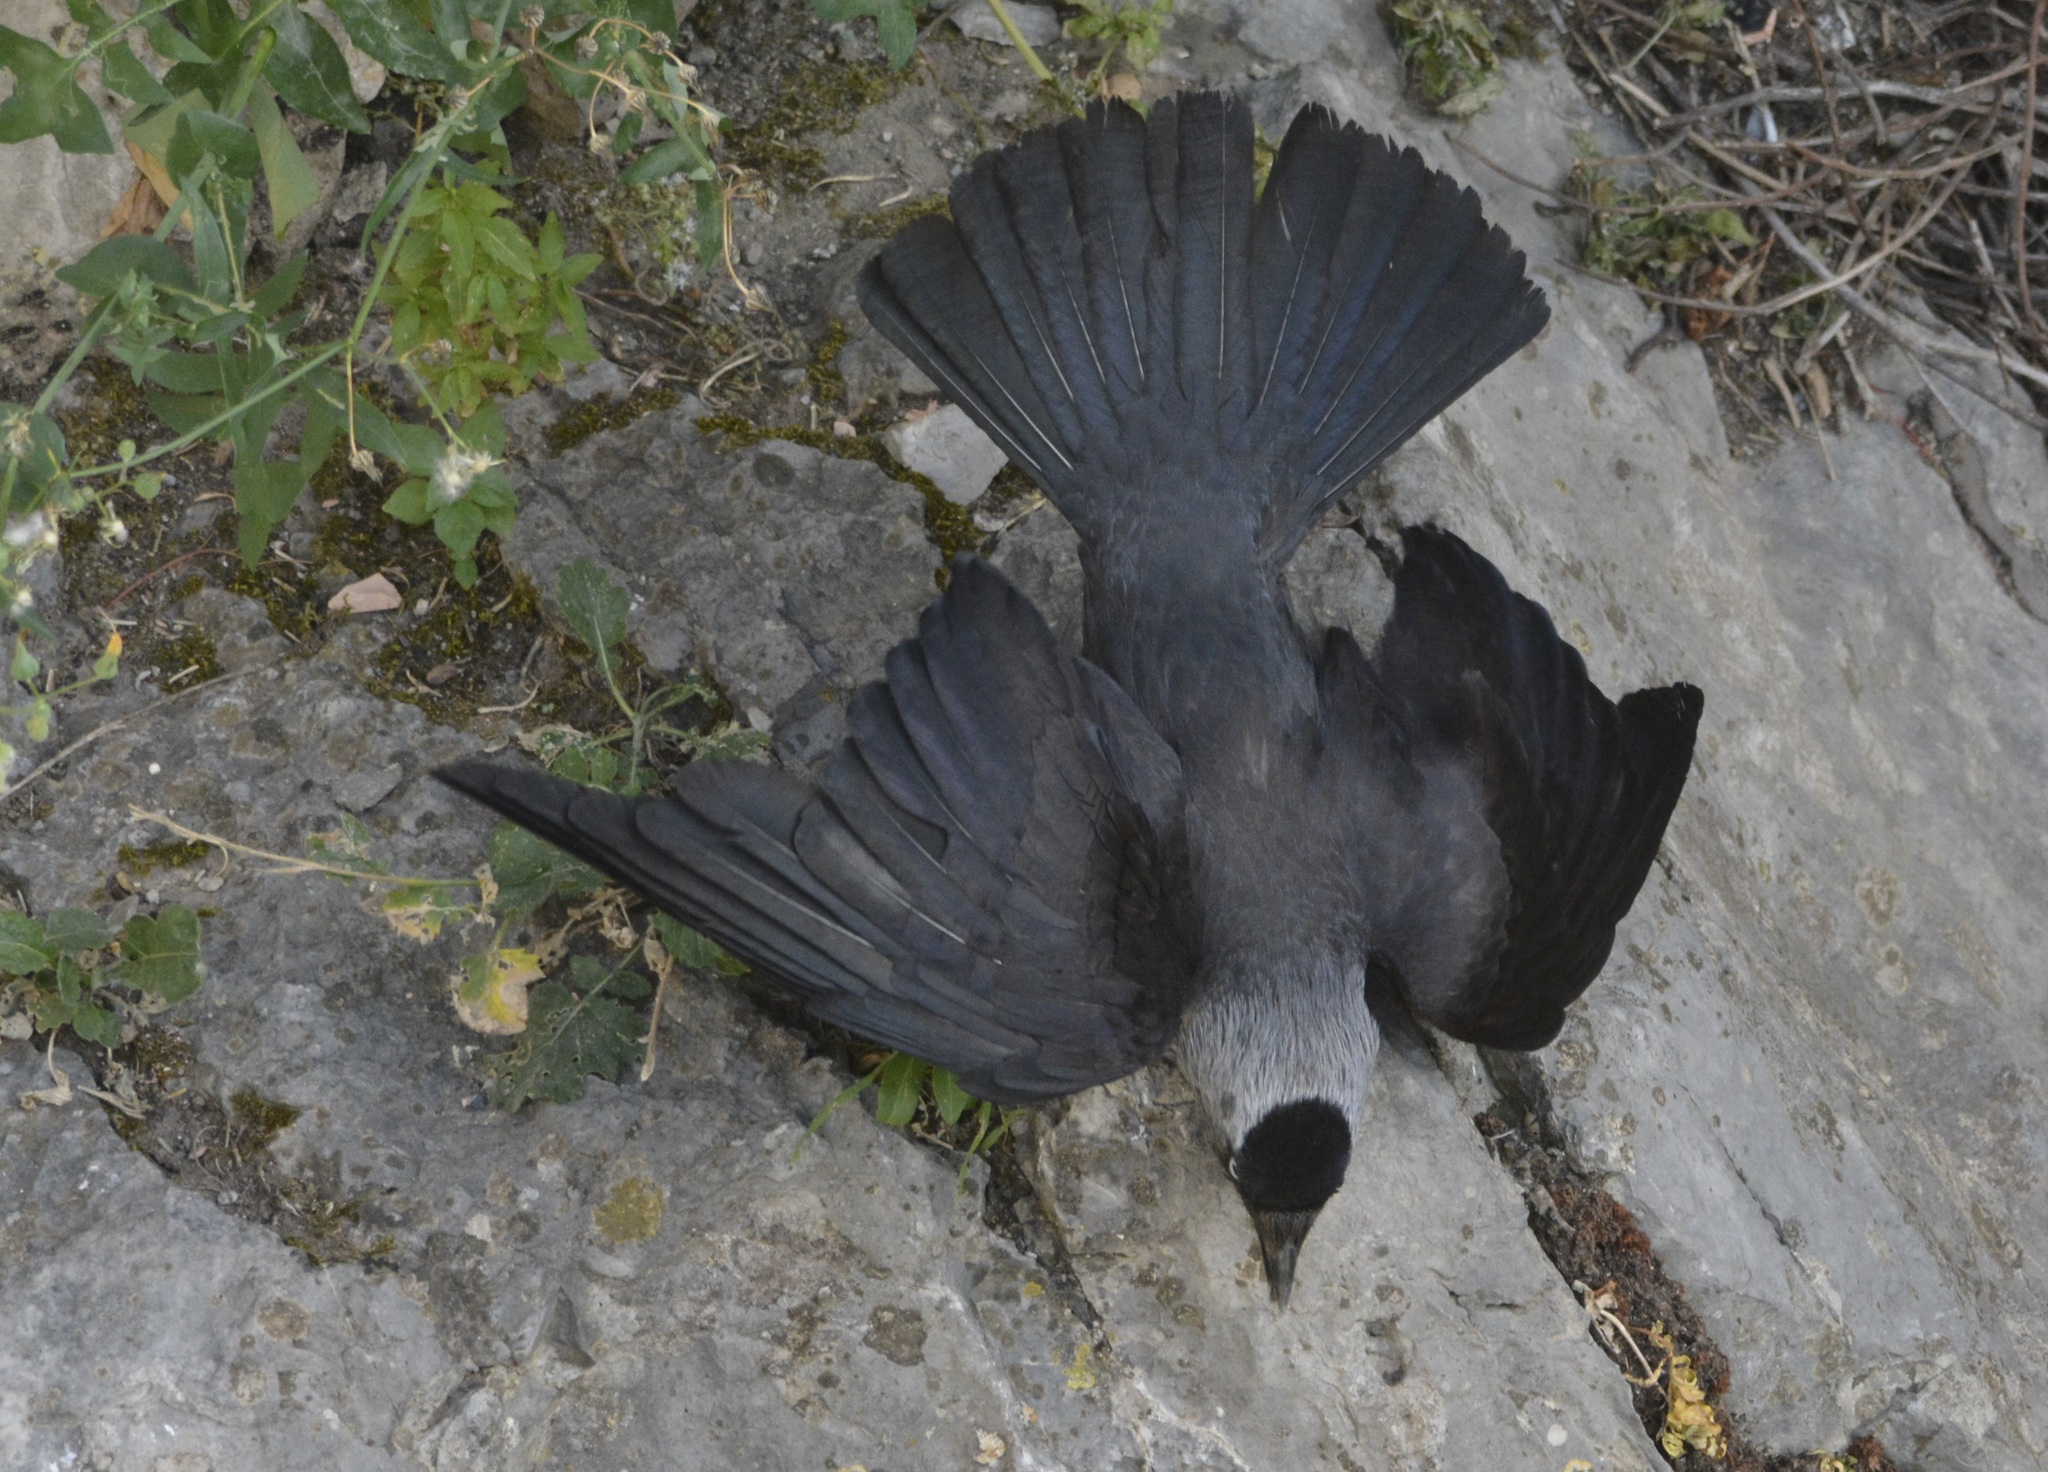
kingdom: Animalia
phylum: Chordata
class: Aves
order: Passeriformes
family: Corvidae
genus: Coloeus
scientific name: Coloeus monedula
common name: Western jackdaw
